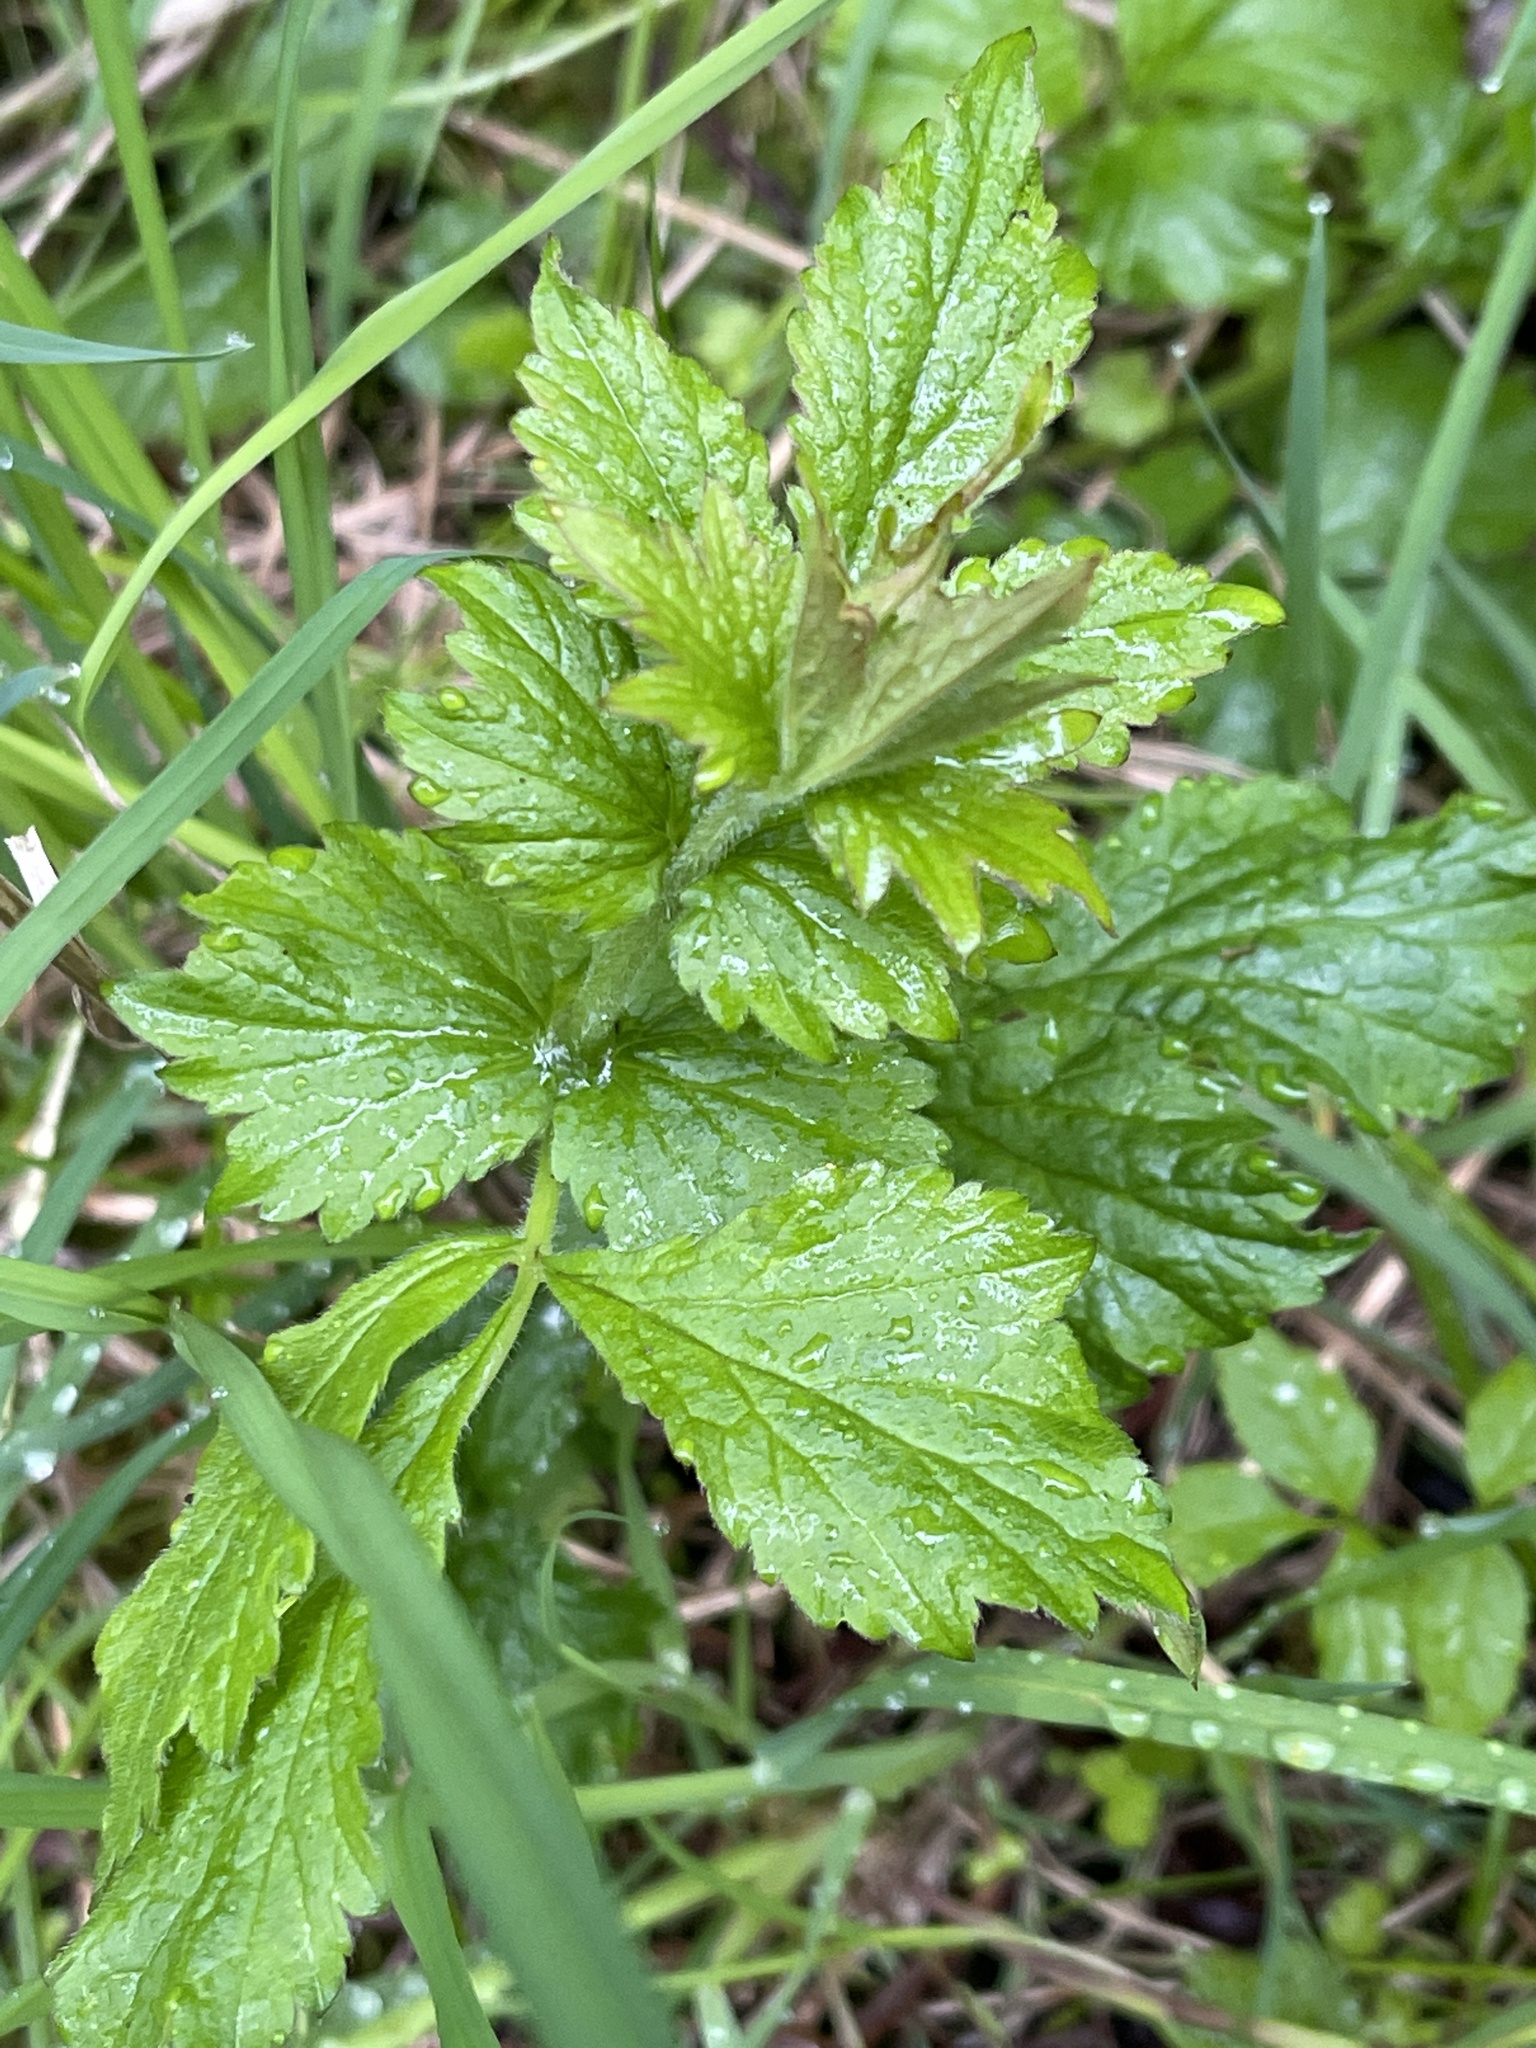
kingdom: Plantae
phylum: Tracheophyta
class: Magnoliopsida
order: Rosales
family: Rosaceae
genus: Geum
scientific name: Geum urbanum
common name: Wood avens
